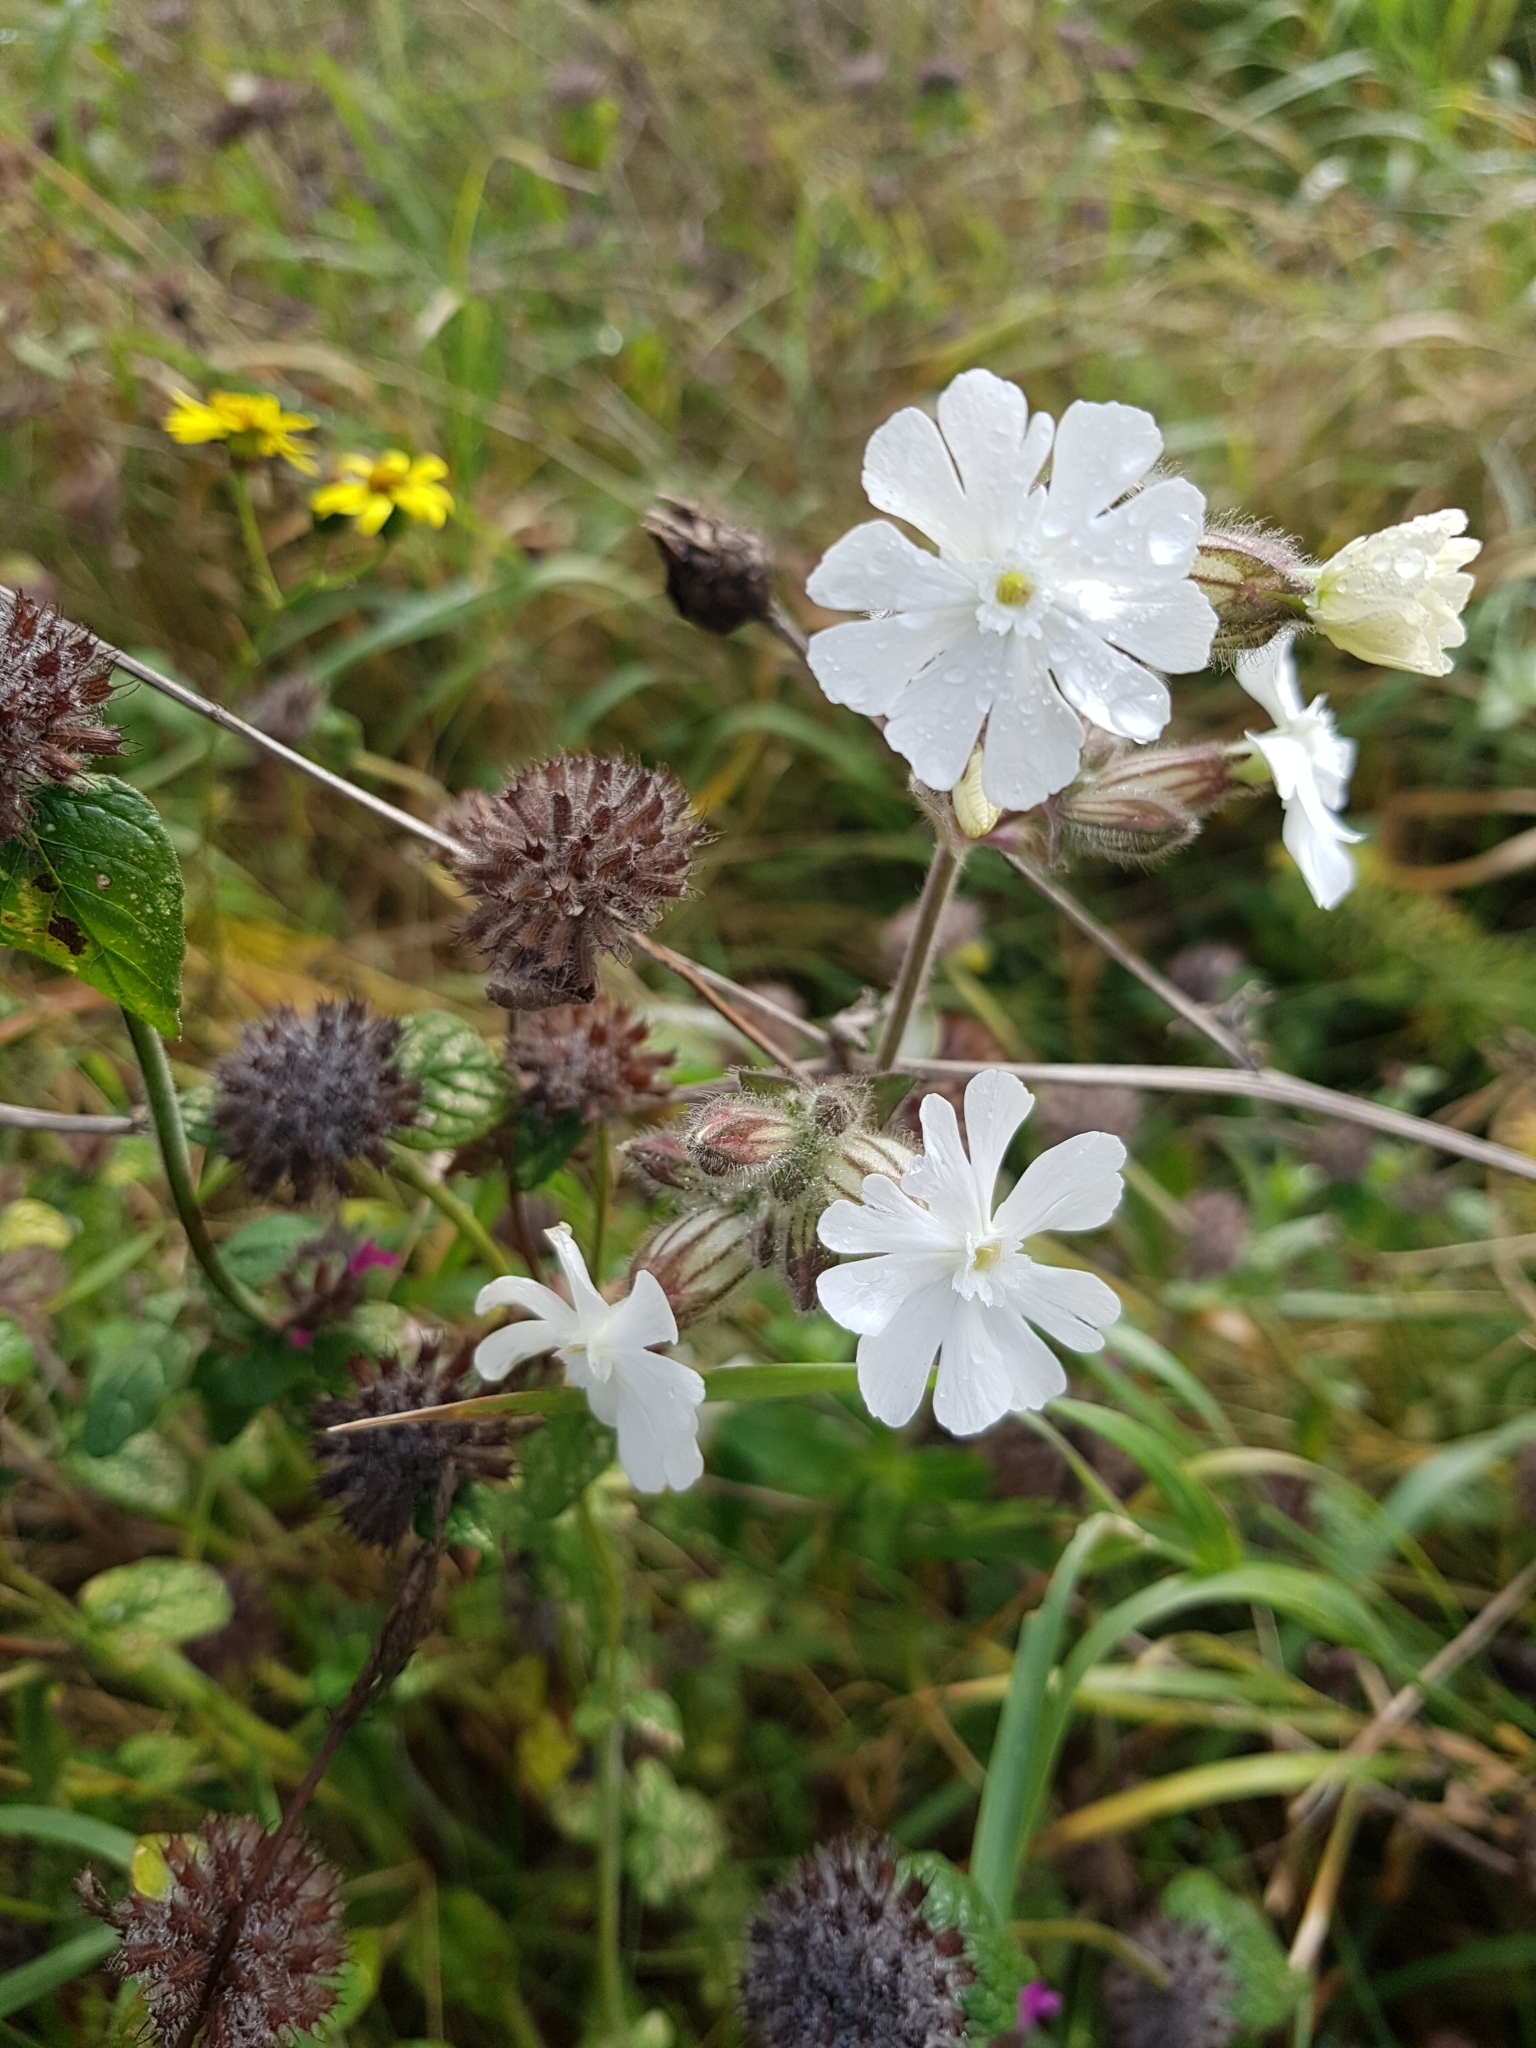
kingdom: Plantae
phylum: Tracheophyta
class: Magnoliopsida
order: Caryophyllales
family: Caryophyllaceae
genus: Silene
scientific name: Silene latifolia
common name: White campion
